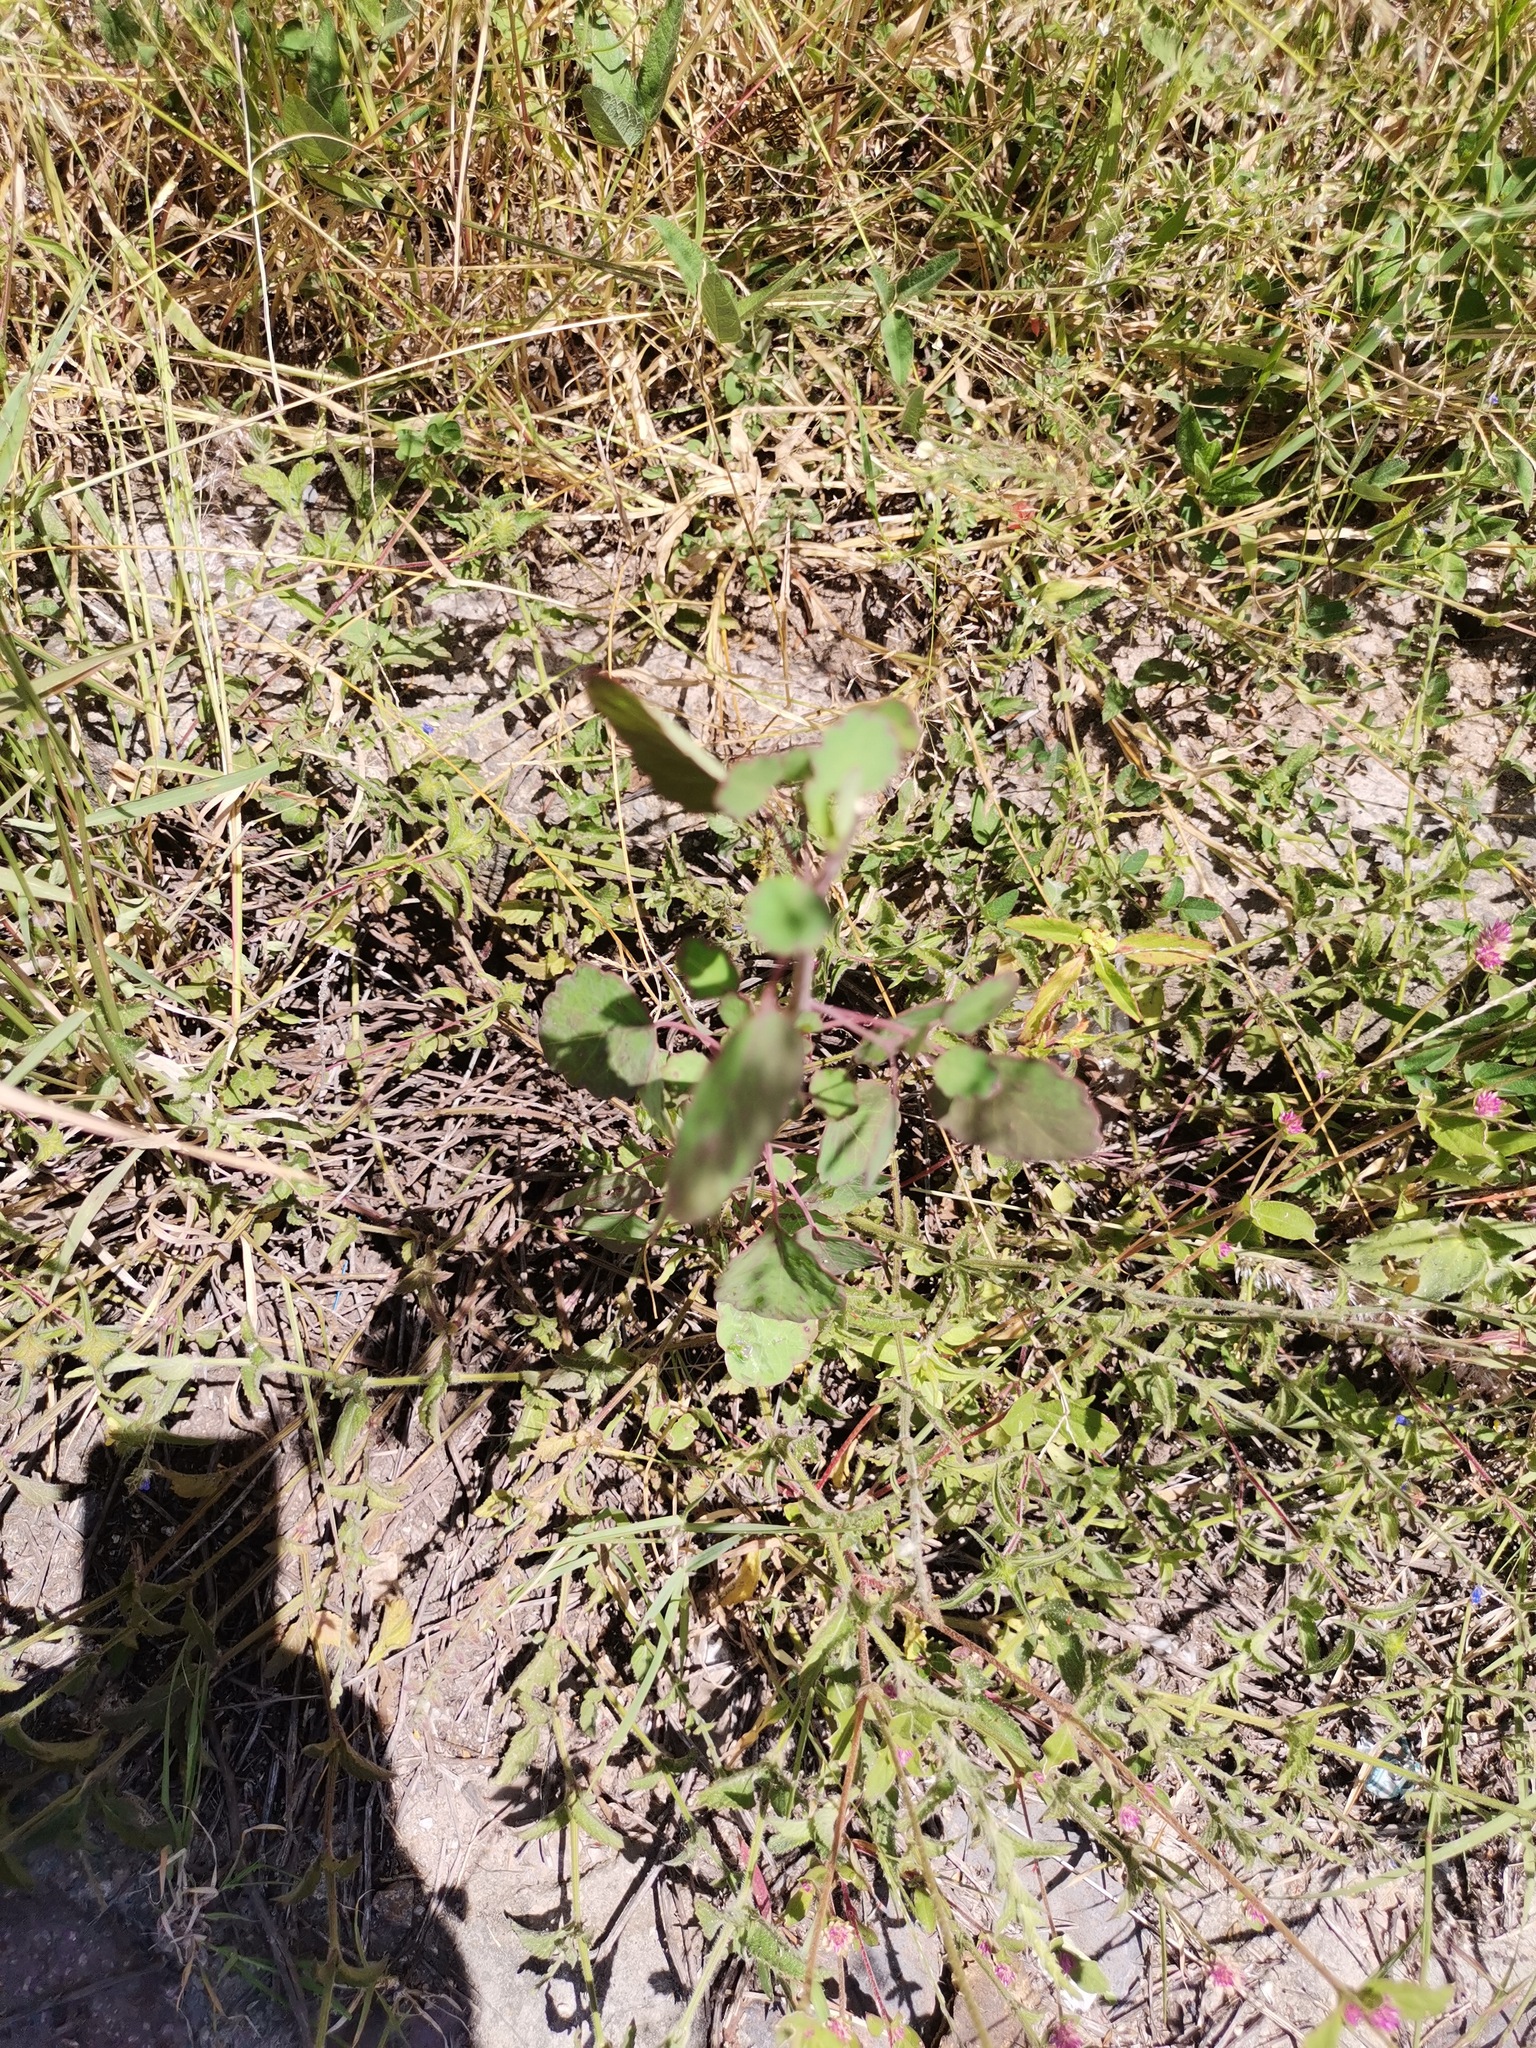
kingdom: Plantae
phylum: Tracheophyta
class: Magnoliopsida
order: Asterales
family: Asteraceae
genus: Porophyllum
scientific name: Porophyllum ruderale
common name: Yerba porosa
